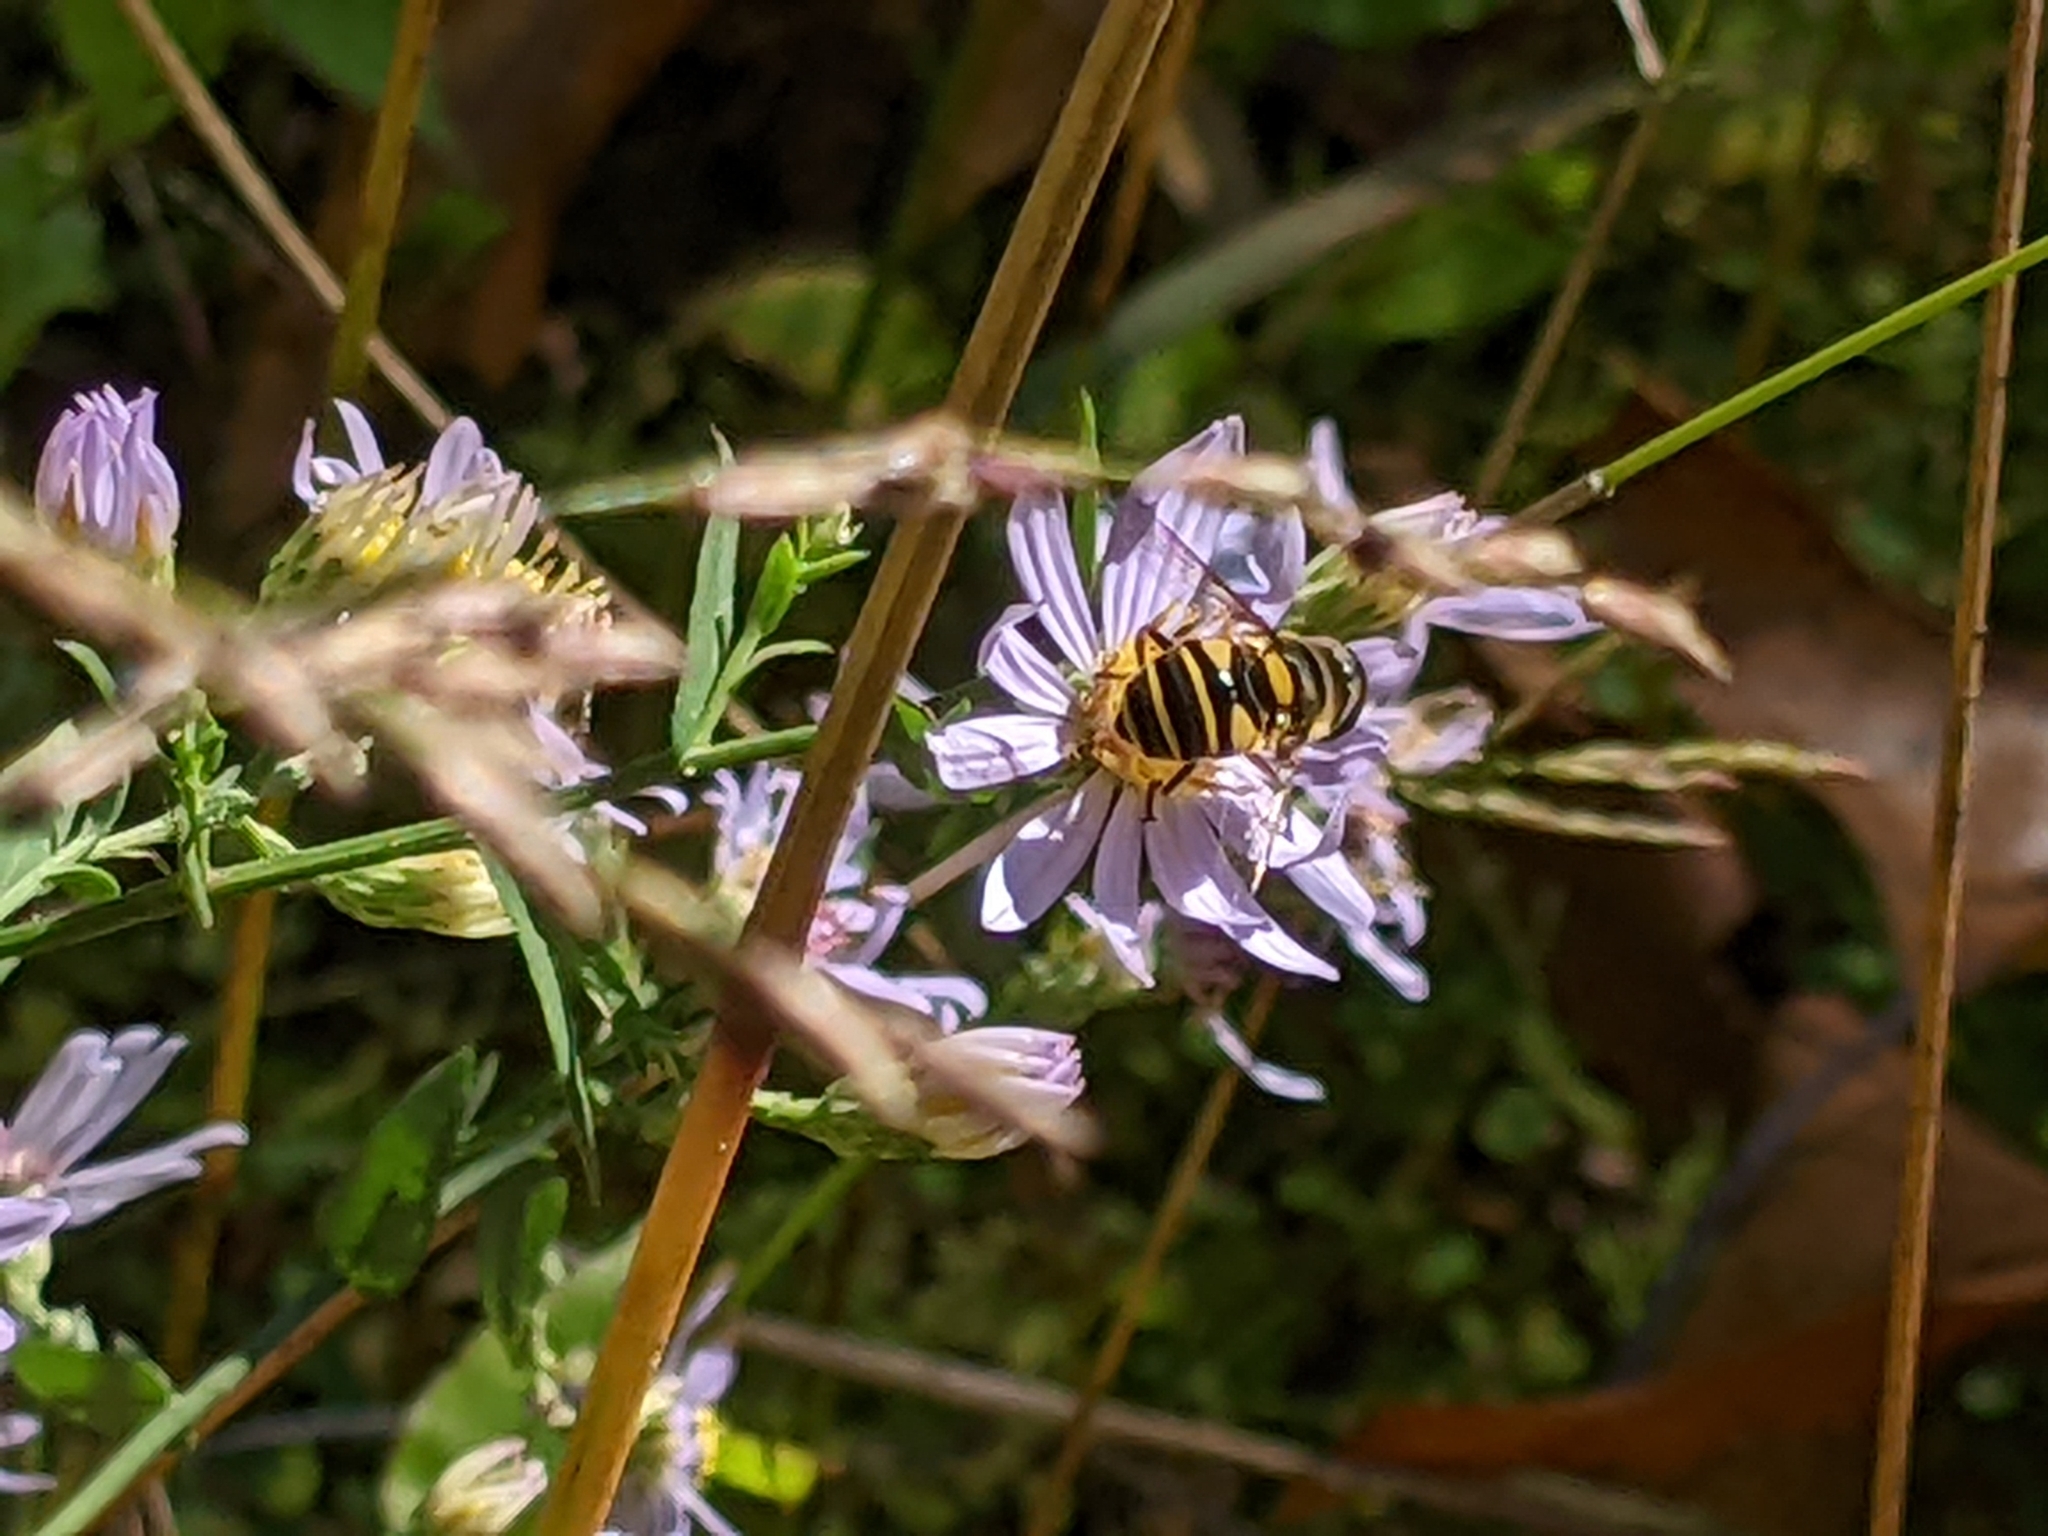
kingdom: Animalia
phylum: Arthropoda
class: Insecta
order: Diptera
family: Syrphidae
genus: Eristalis
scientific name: Eristalis transversa
